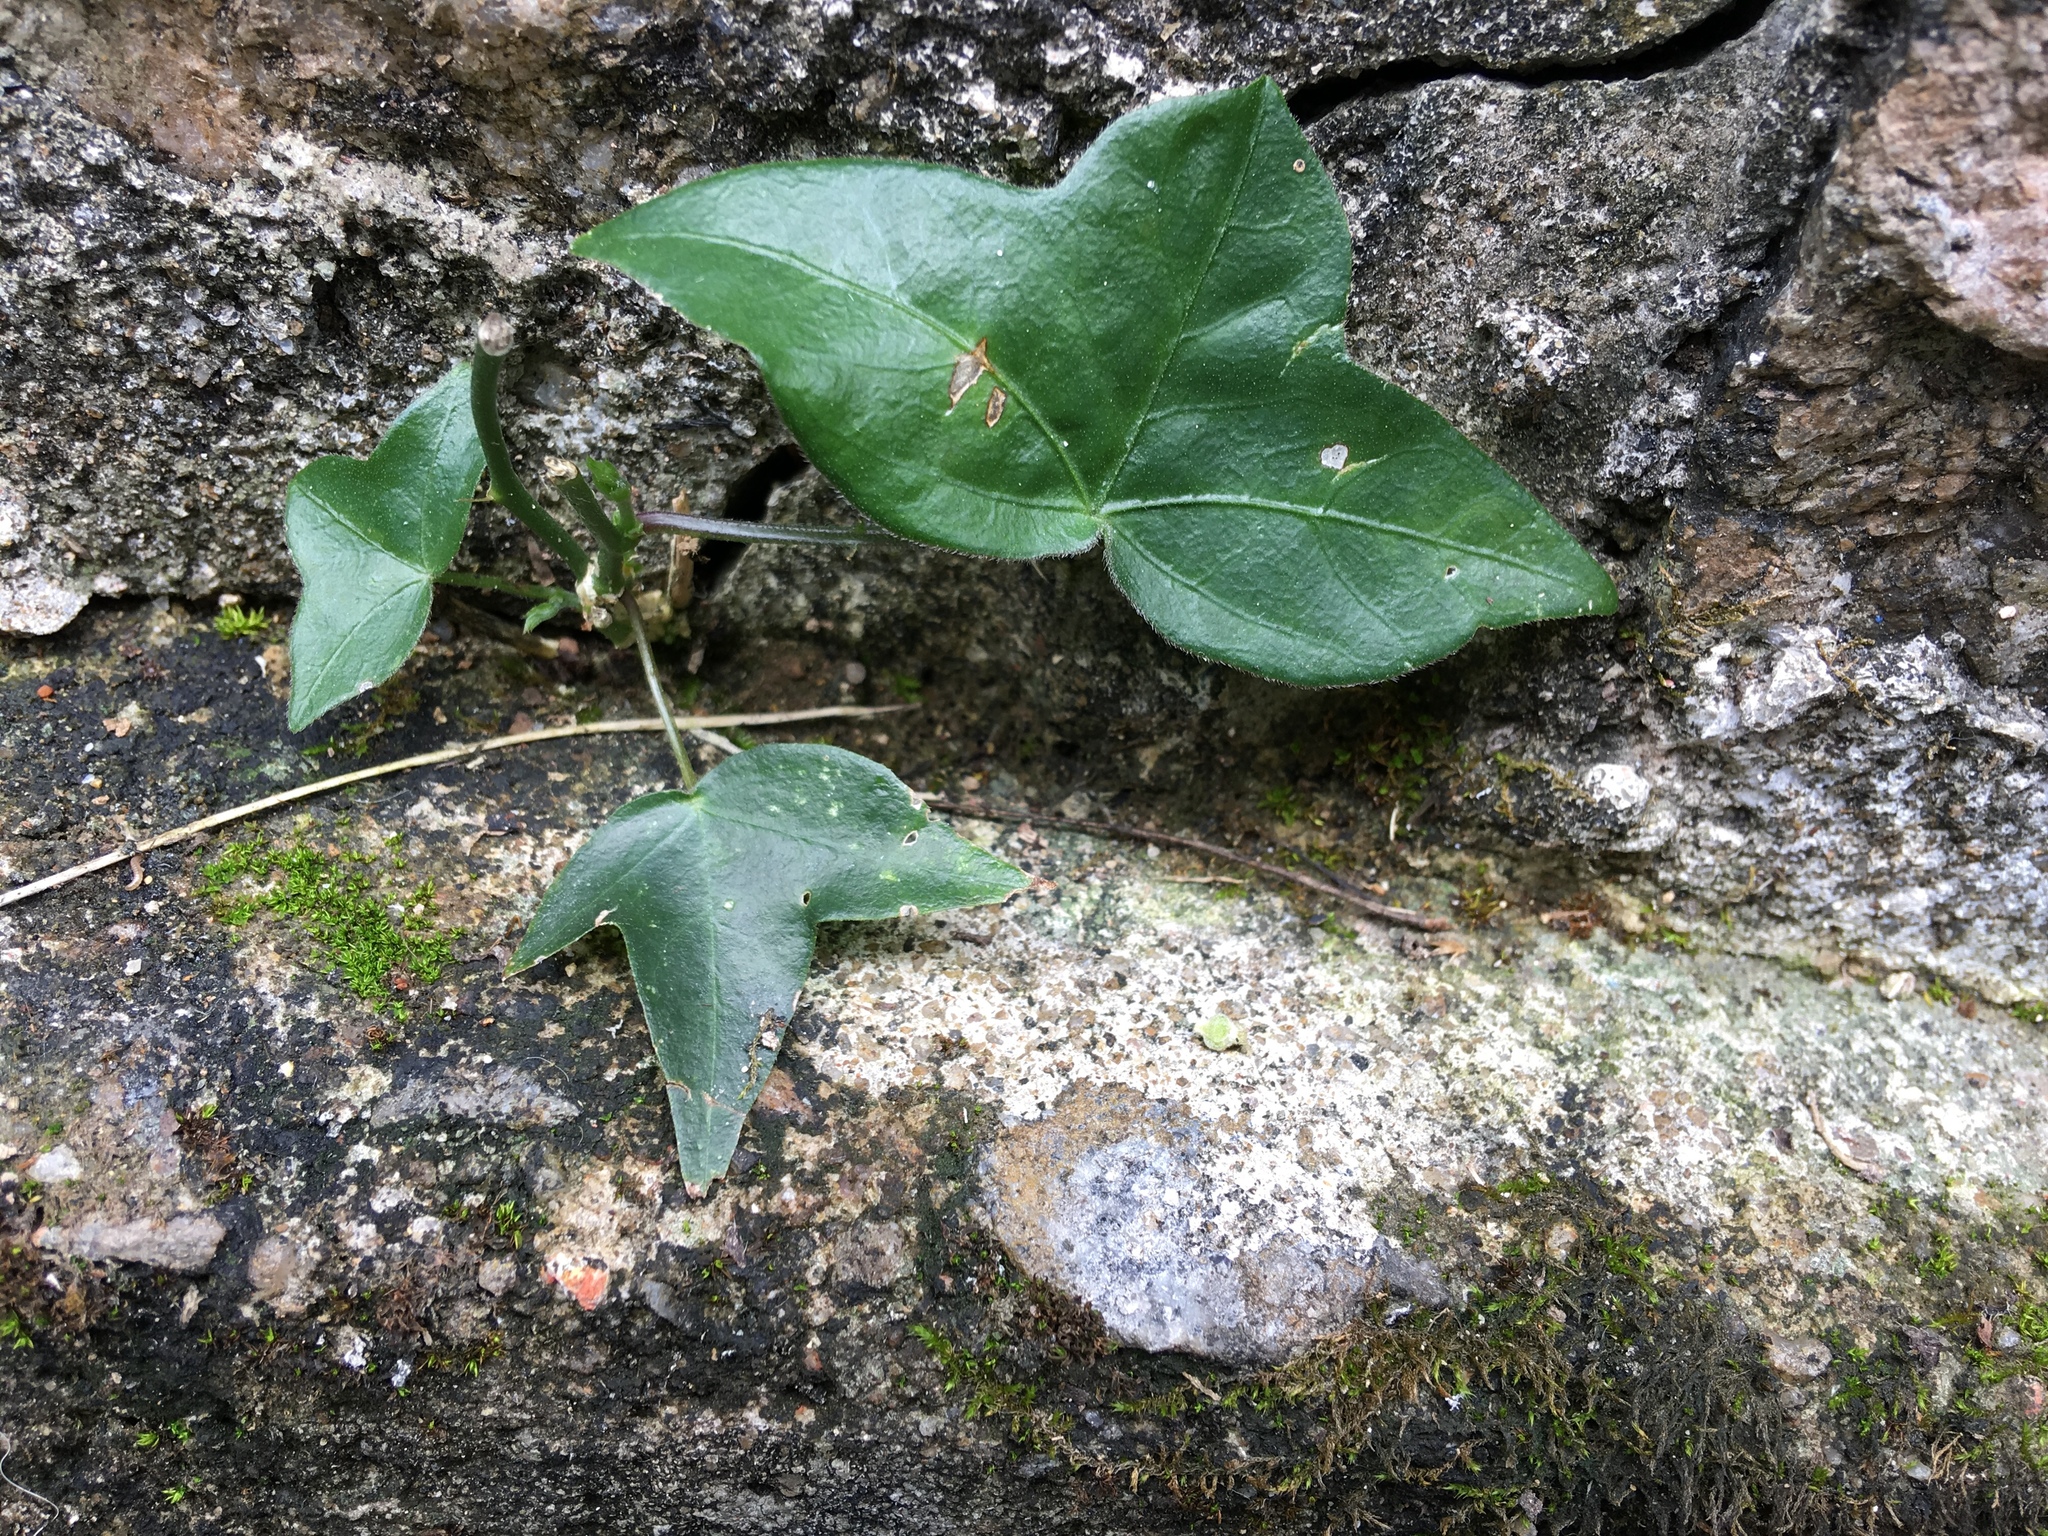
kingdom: Plantae
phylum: Tracheophyta
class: Magnoliopsida
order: Malpighiales
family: Passifloraceae
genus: Passiflora
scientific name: Passiflora suberosa
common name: Wild passionfruit
